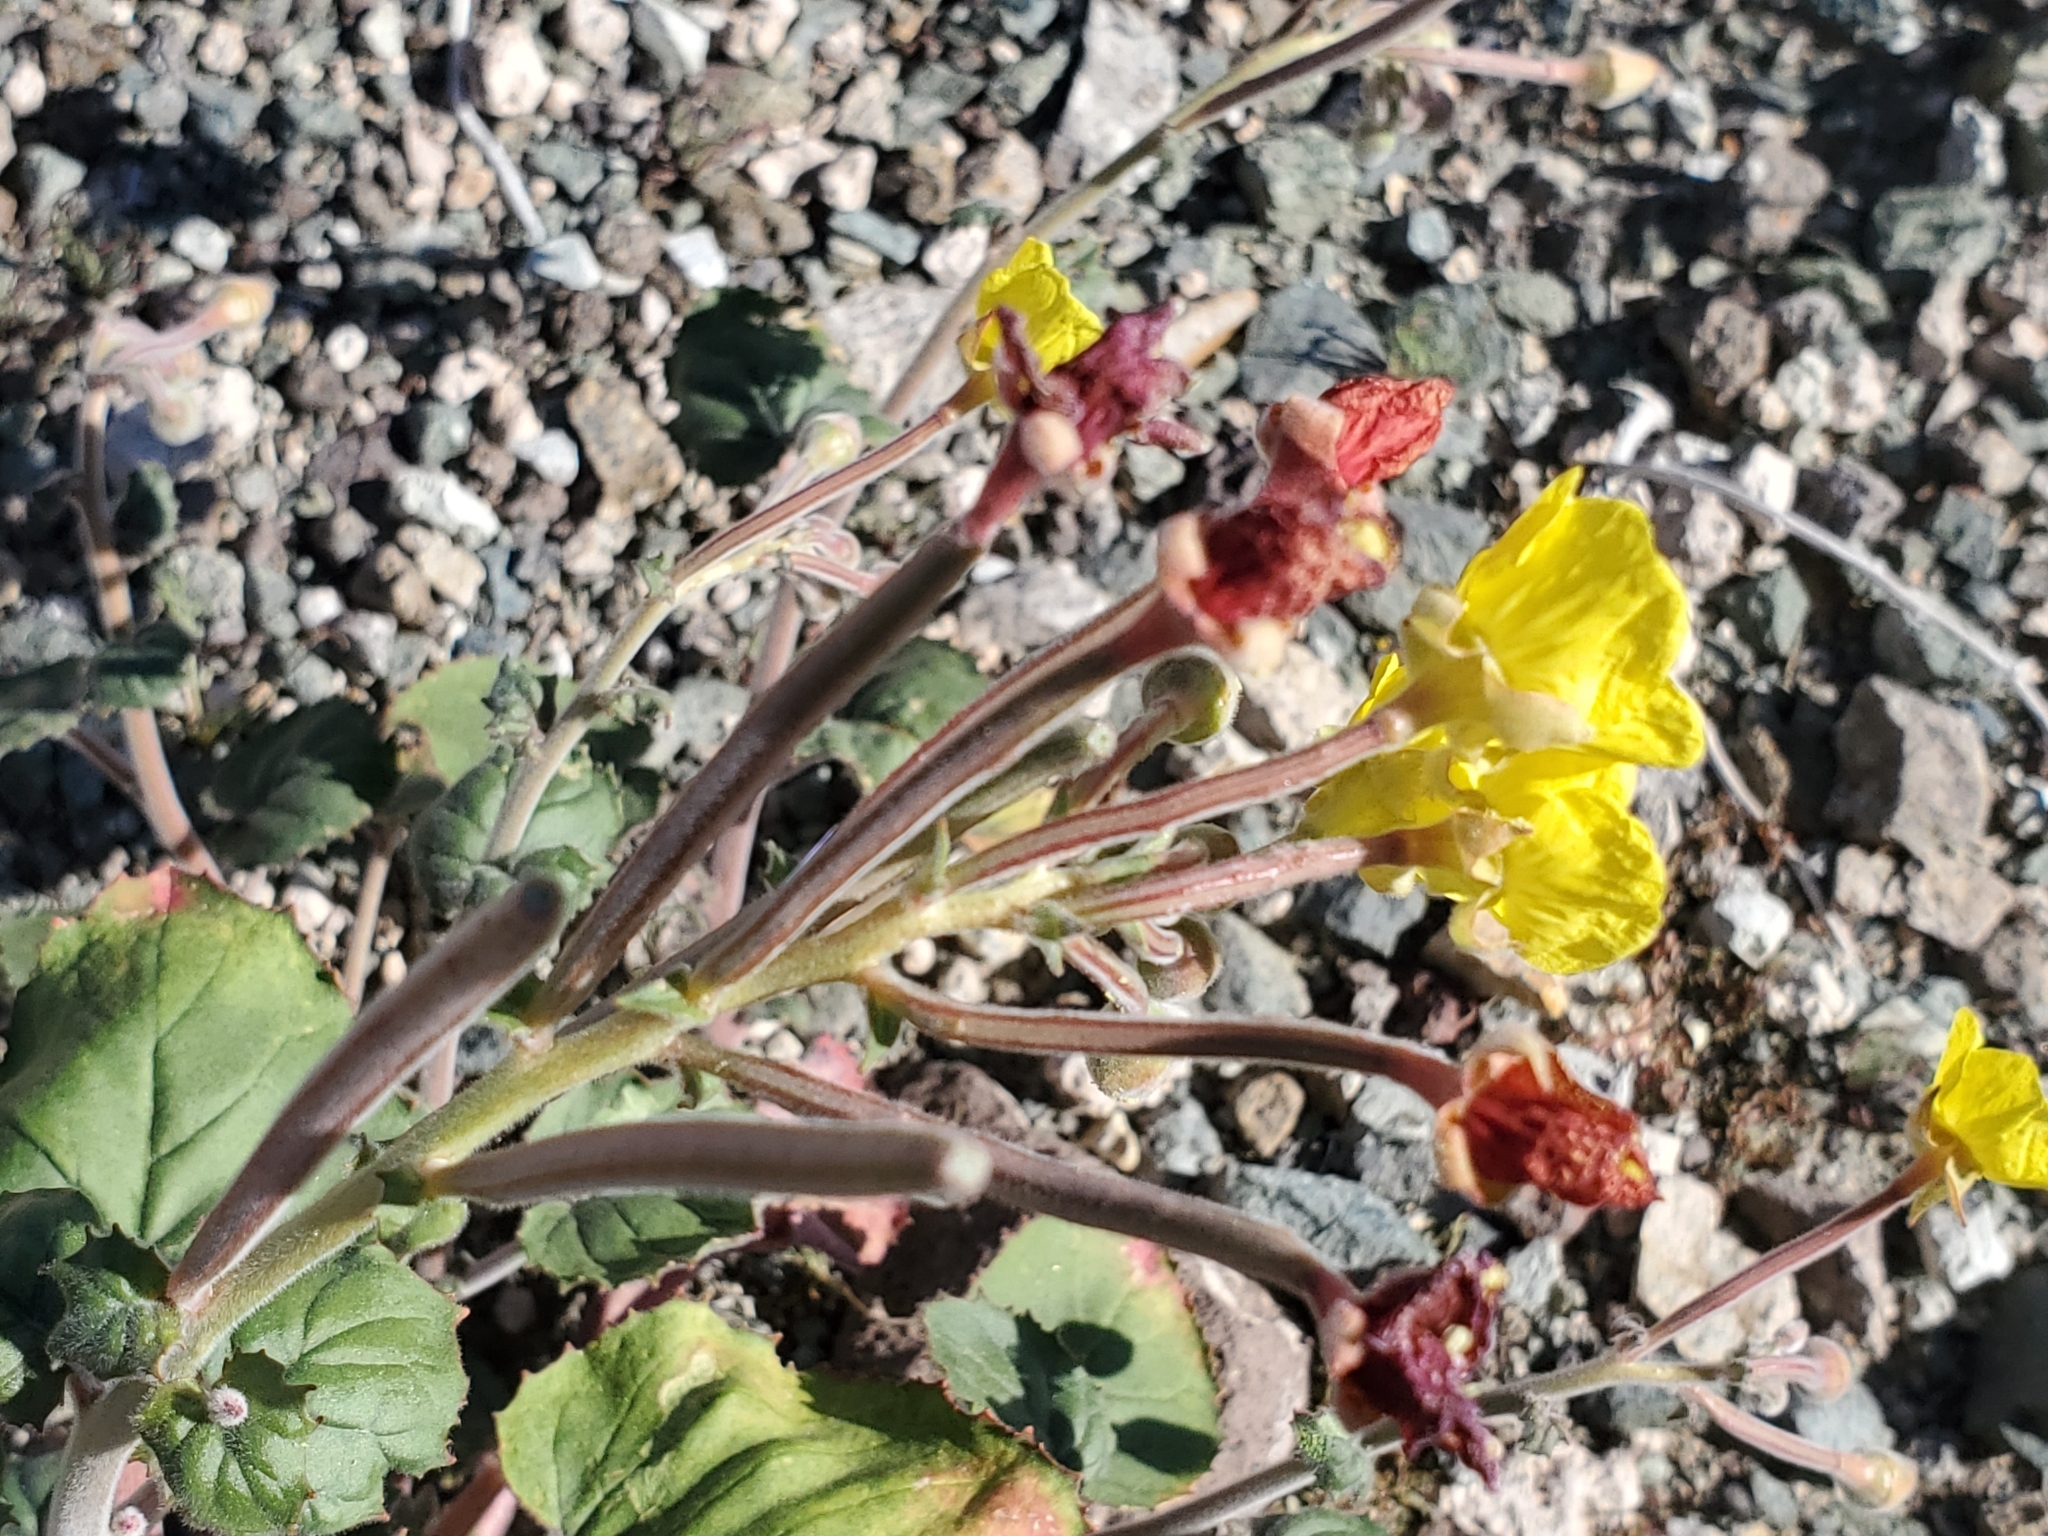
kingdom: Plantae
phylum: Tracheophyta
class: Magnoliopsida
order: Myrtales
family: Onagraceae
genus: Chylismia
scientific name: Chylismia cardiophylla
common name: Heartleaf suncup
